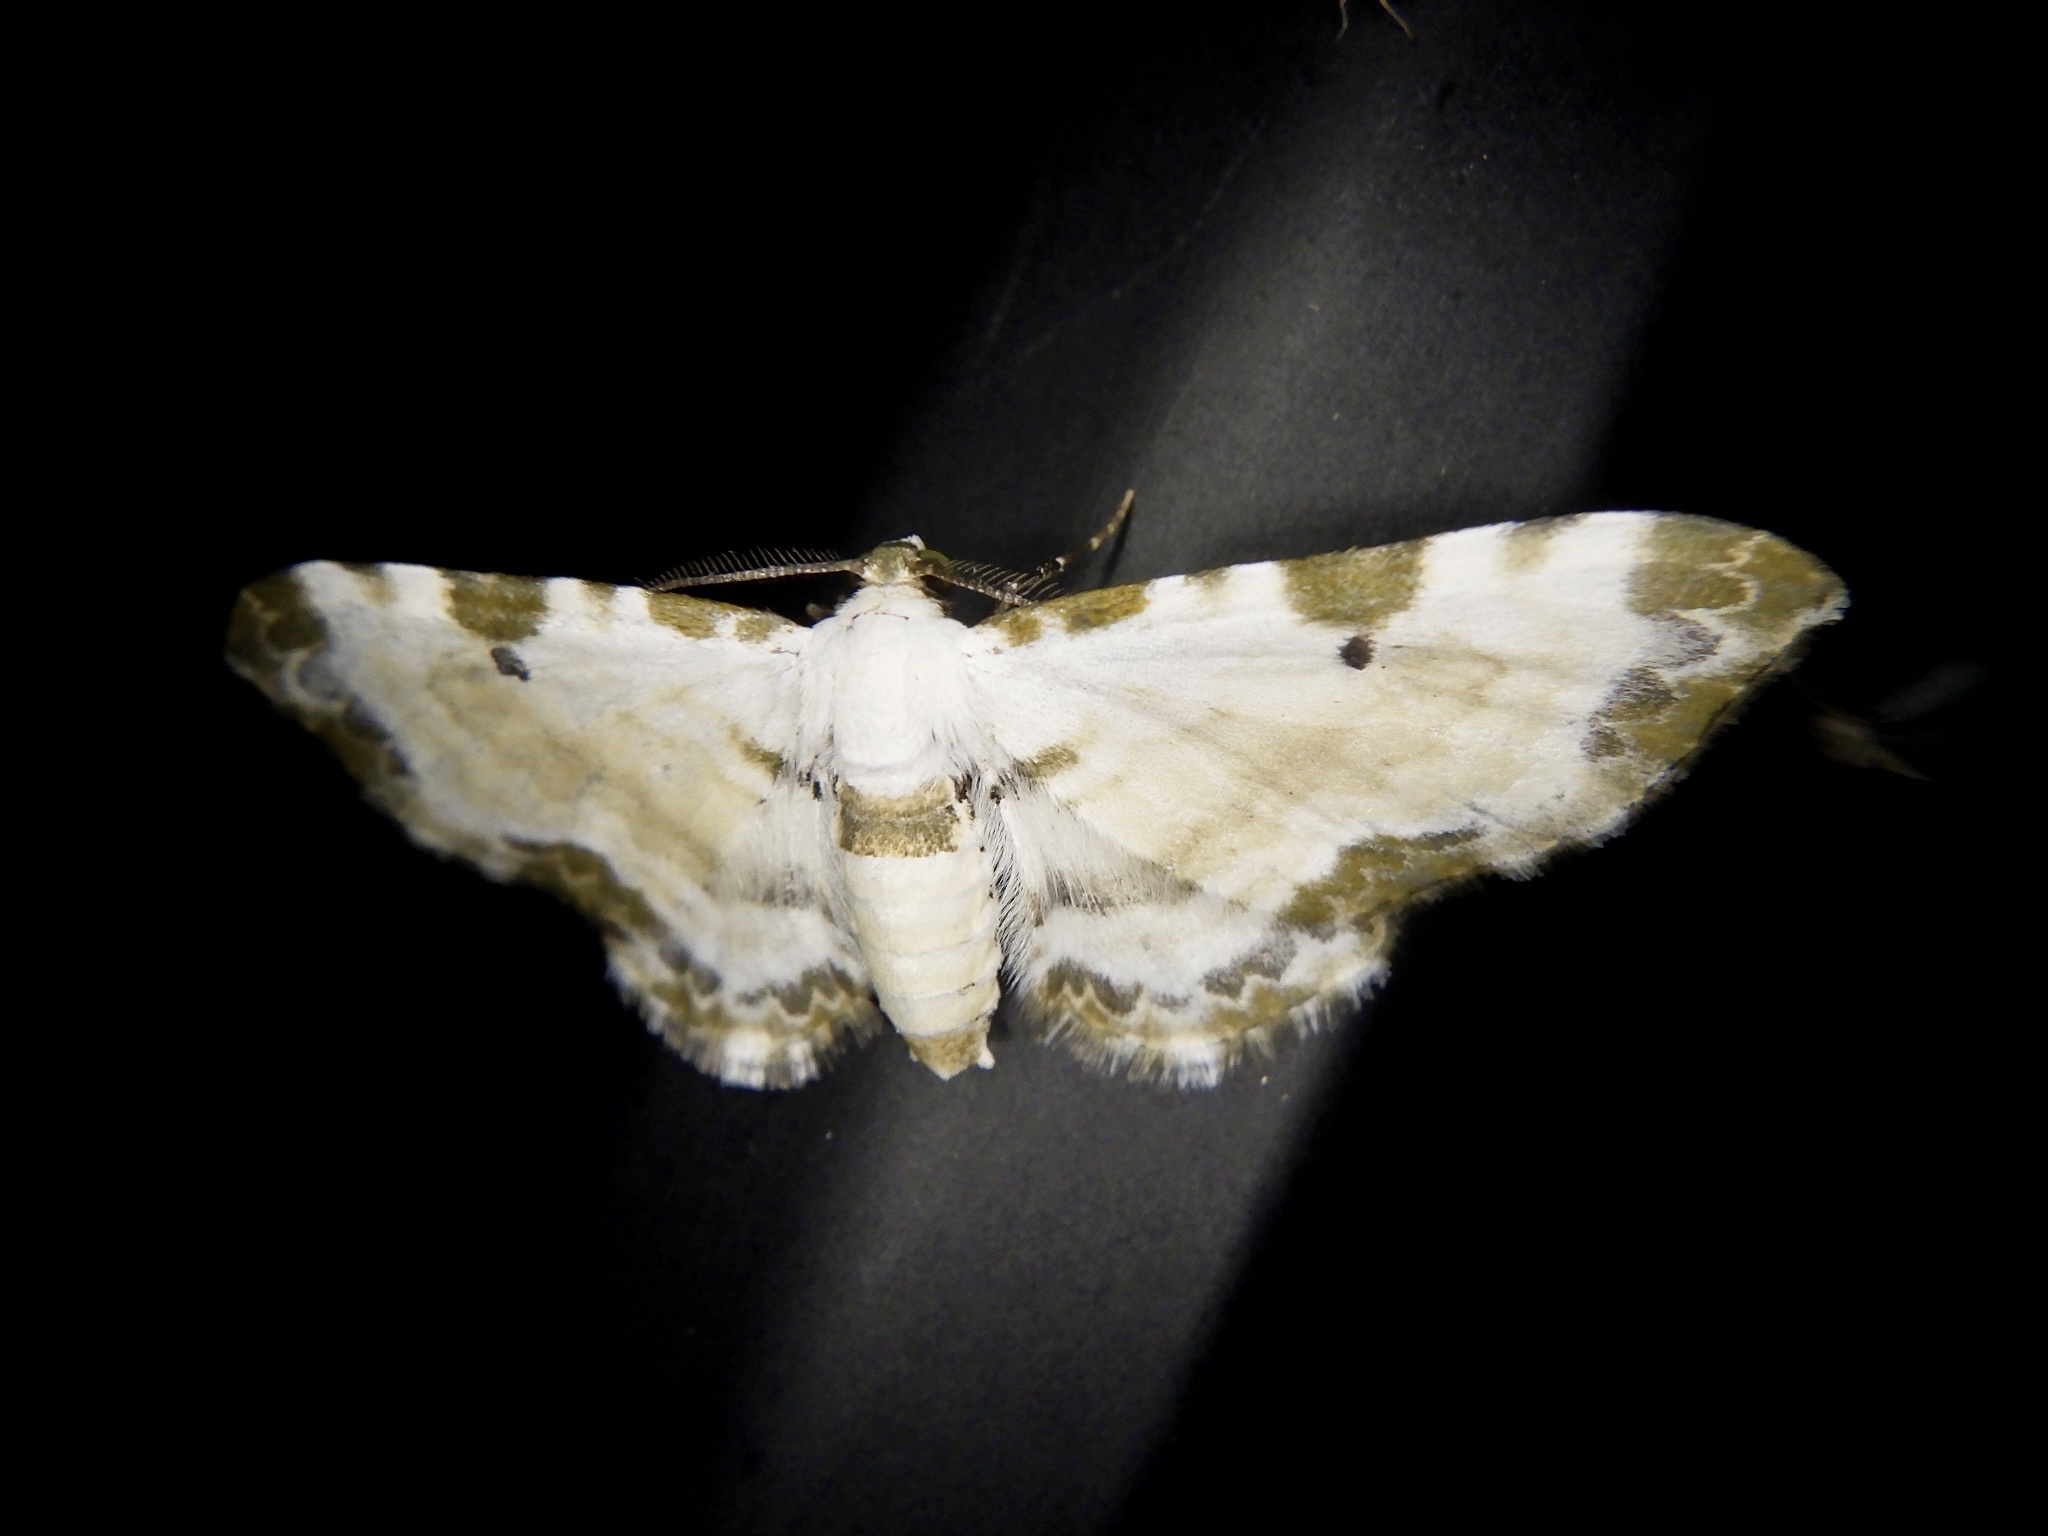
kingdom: Animalia
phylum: Arthropoda
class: Insecta
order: Lepidoptera
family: Geometridae
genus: Tyloptera
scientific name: Tyloptera bella
